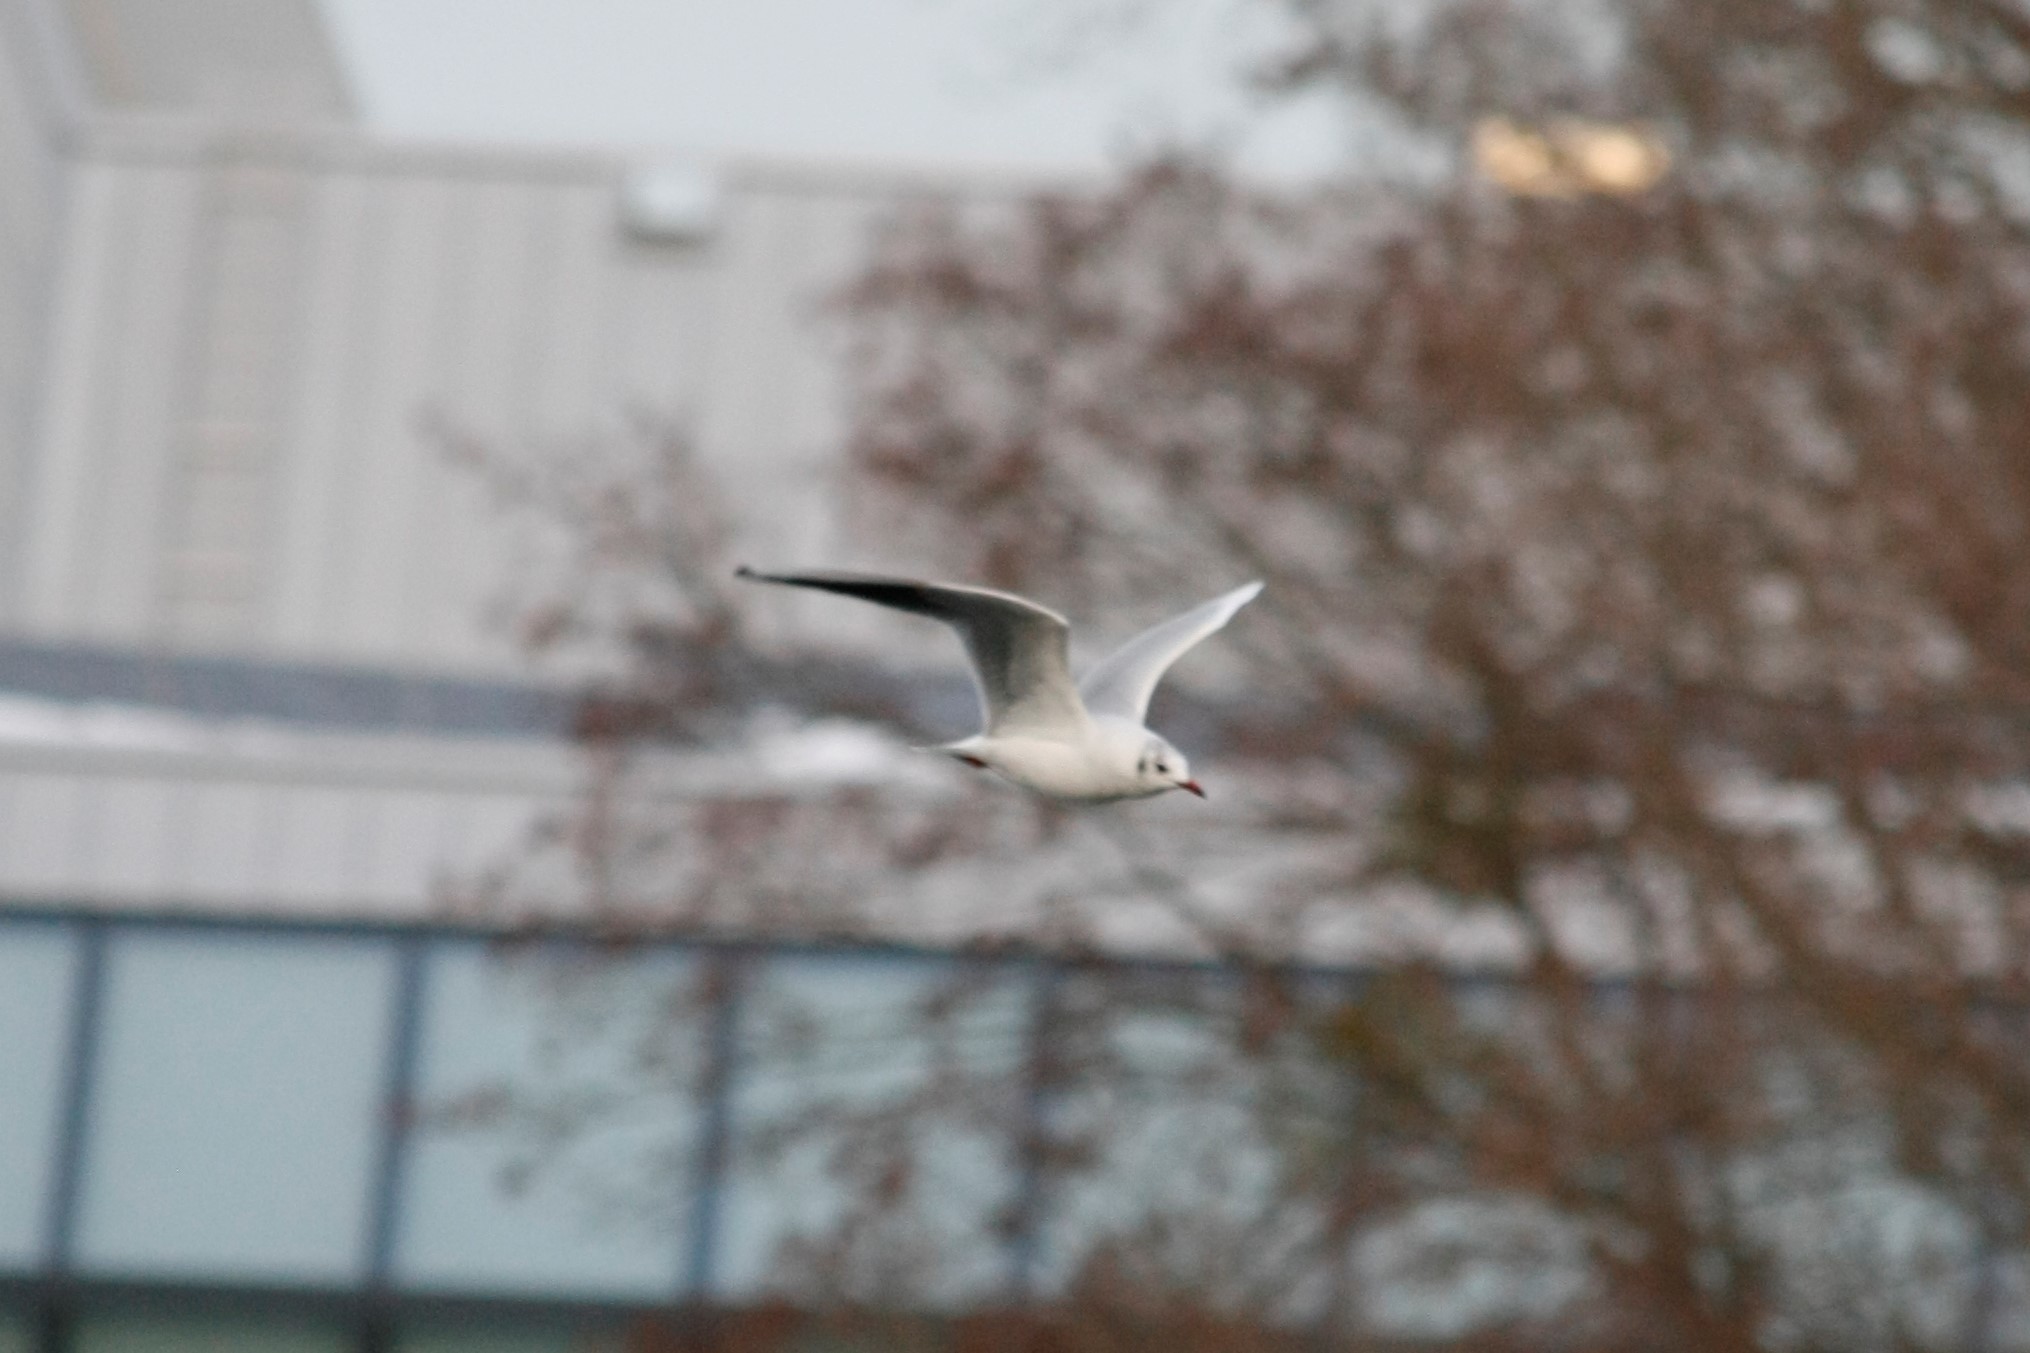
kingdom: Animalia
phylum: Chordata
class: Aves
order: Charadriiformes
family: Laridae
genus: Chroicocephalus
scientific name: Chroicocephalus ridibundus
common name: Black-headed gull
